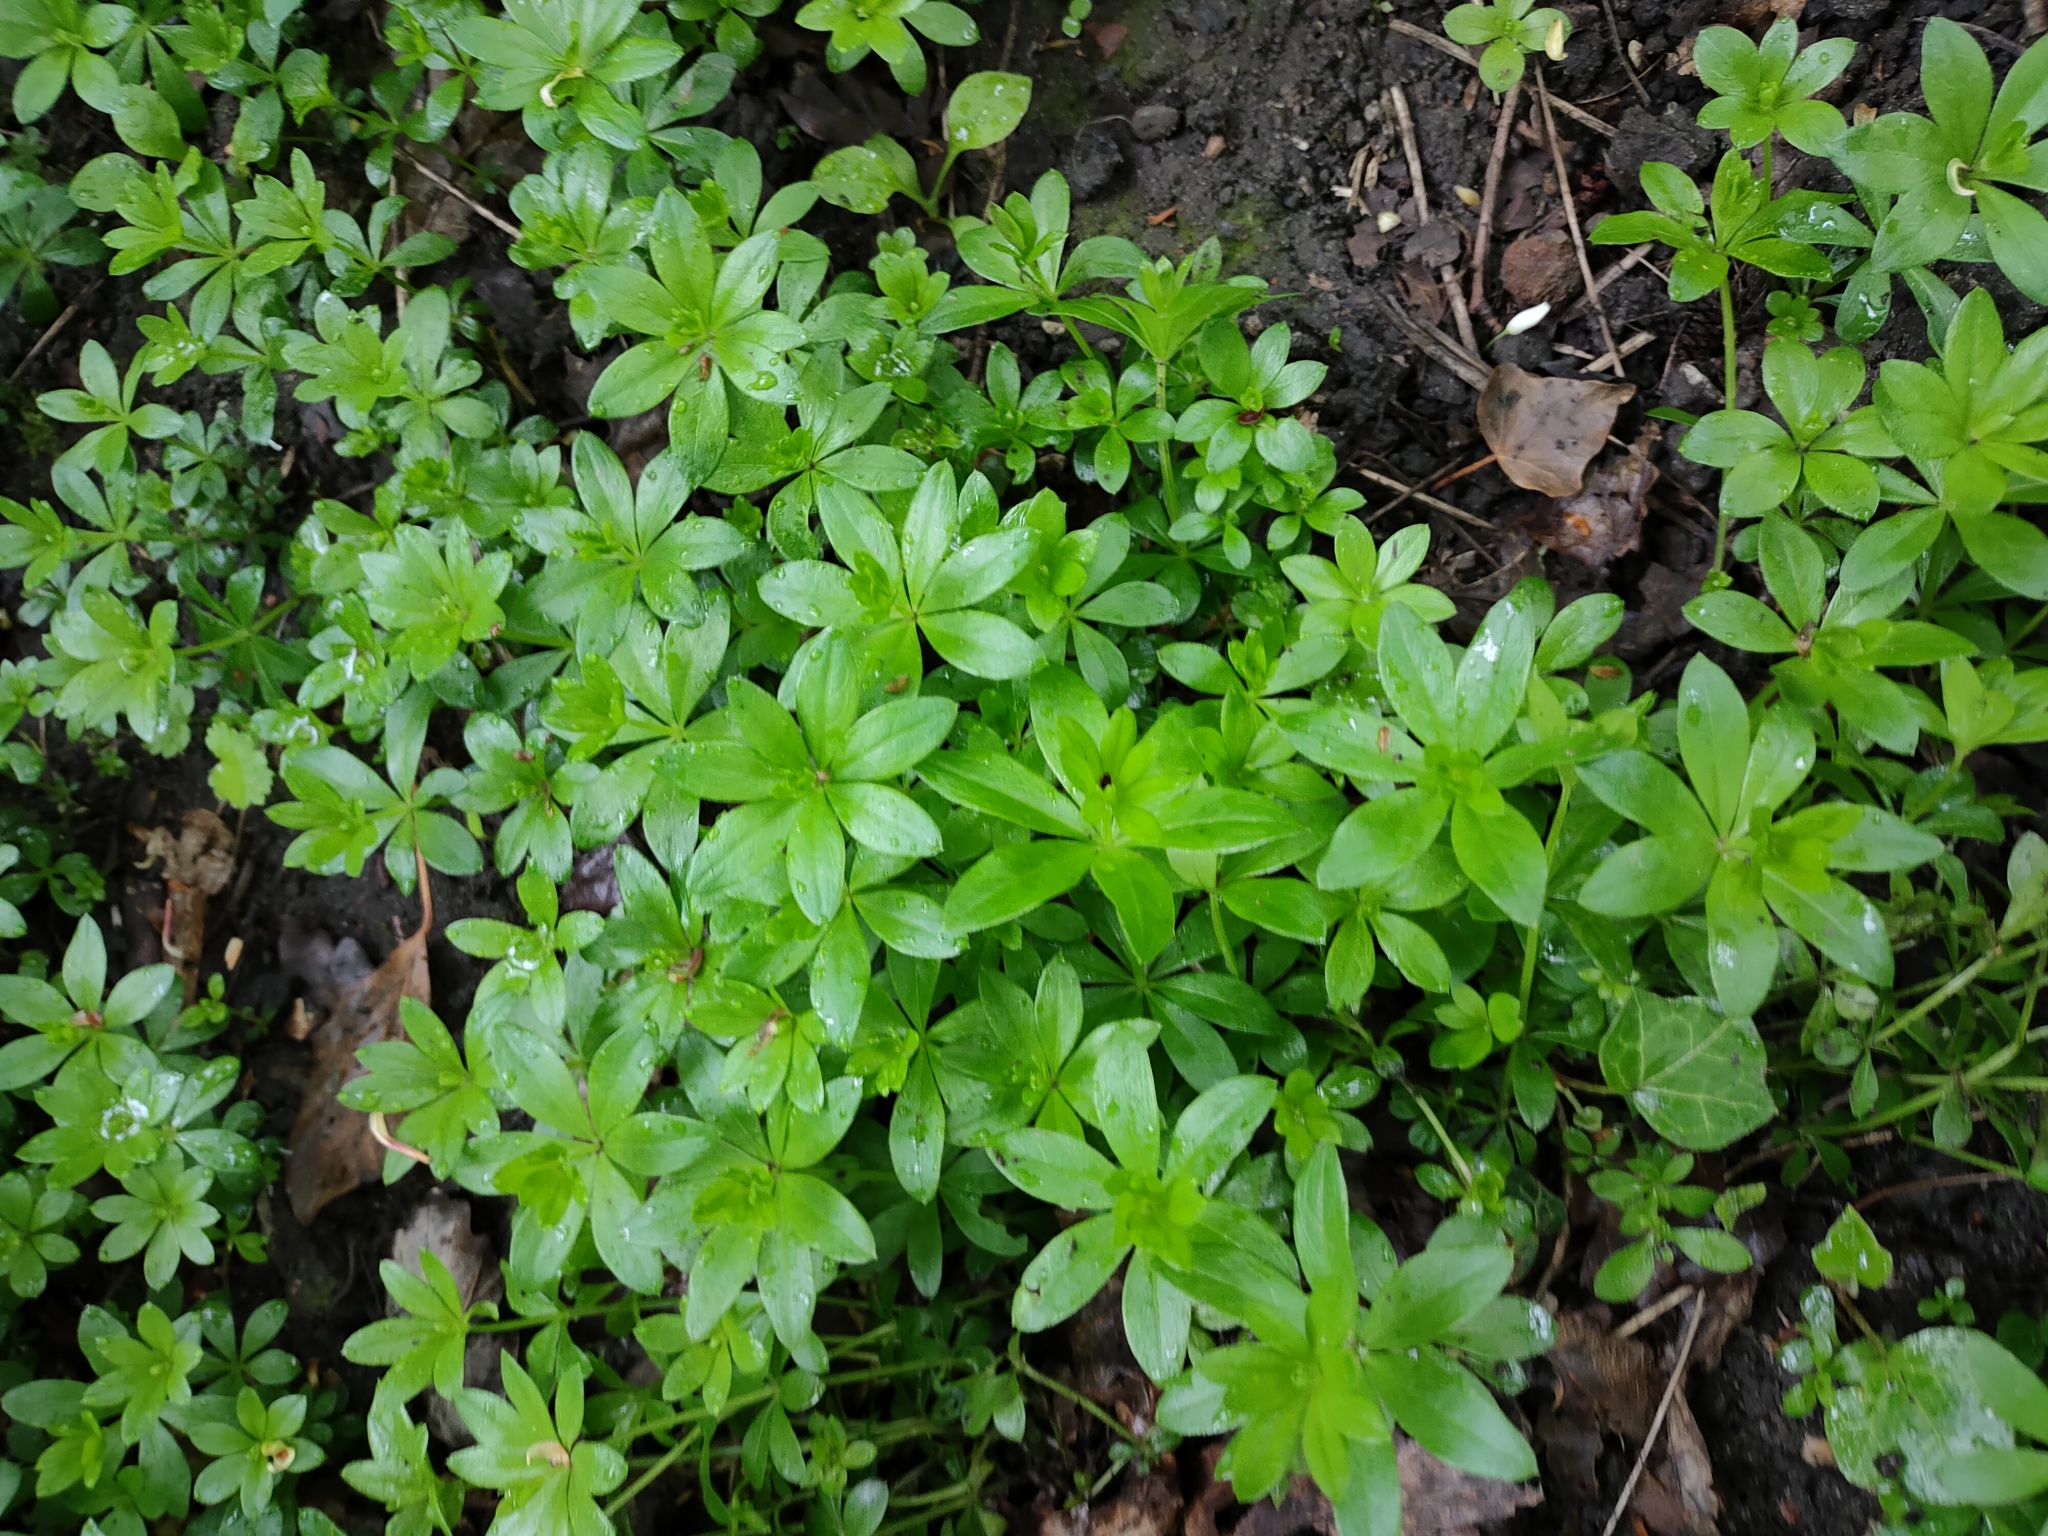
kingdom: Plantae
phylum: Tracheophyta
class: Magnoliopsida
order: Gentianales
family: Rubiaceae
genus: Galium
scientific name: Galium odoratum
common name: Sweet woodruff
